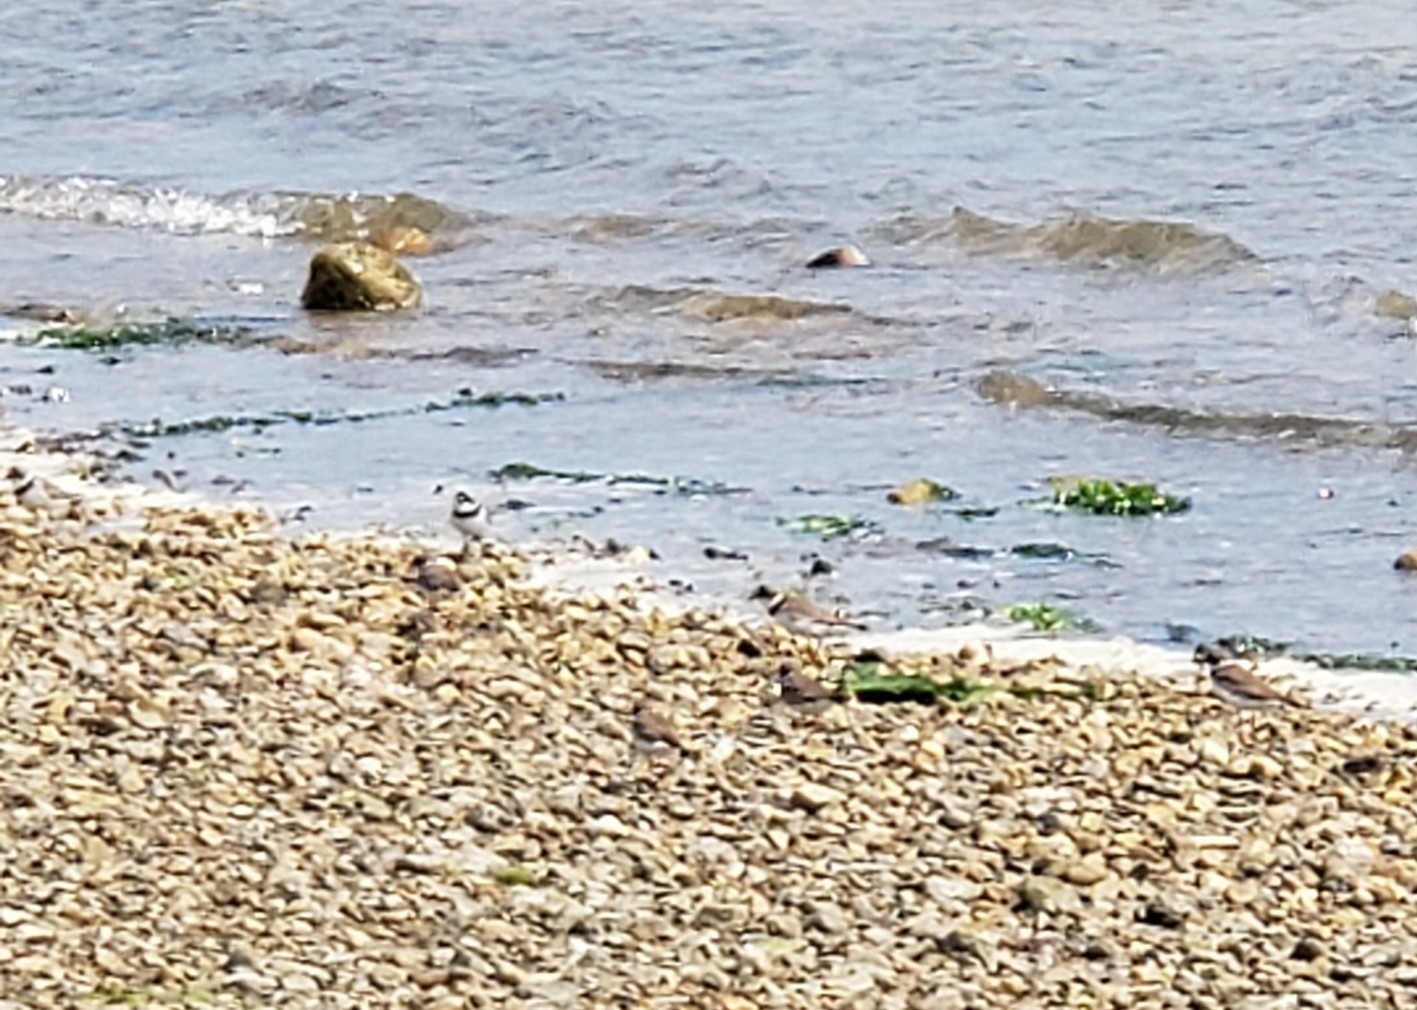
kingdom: Animalia
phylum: Chordata
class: Aves
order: Charadriiformes
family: Charadriidae
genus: Charadrius
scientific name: Charadrius semipalmatus
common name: Semipalmated plover
